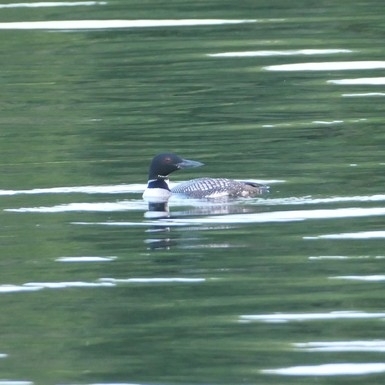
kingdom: Animalia
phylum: Chordata
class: Aves
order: Gaviiformes
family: Gaviidae
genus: Gavia
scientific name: Gavia immer
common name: Common loon
